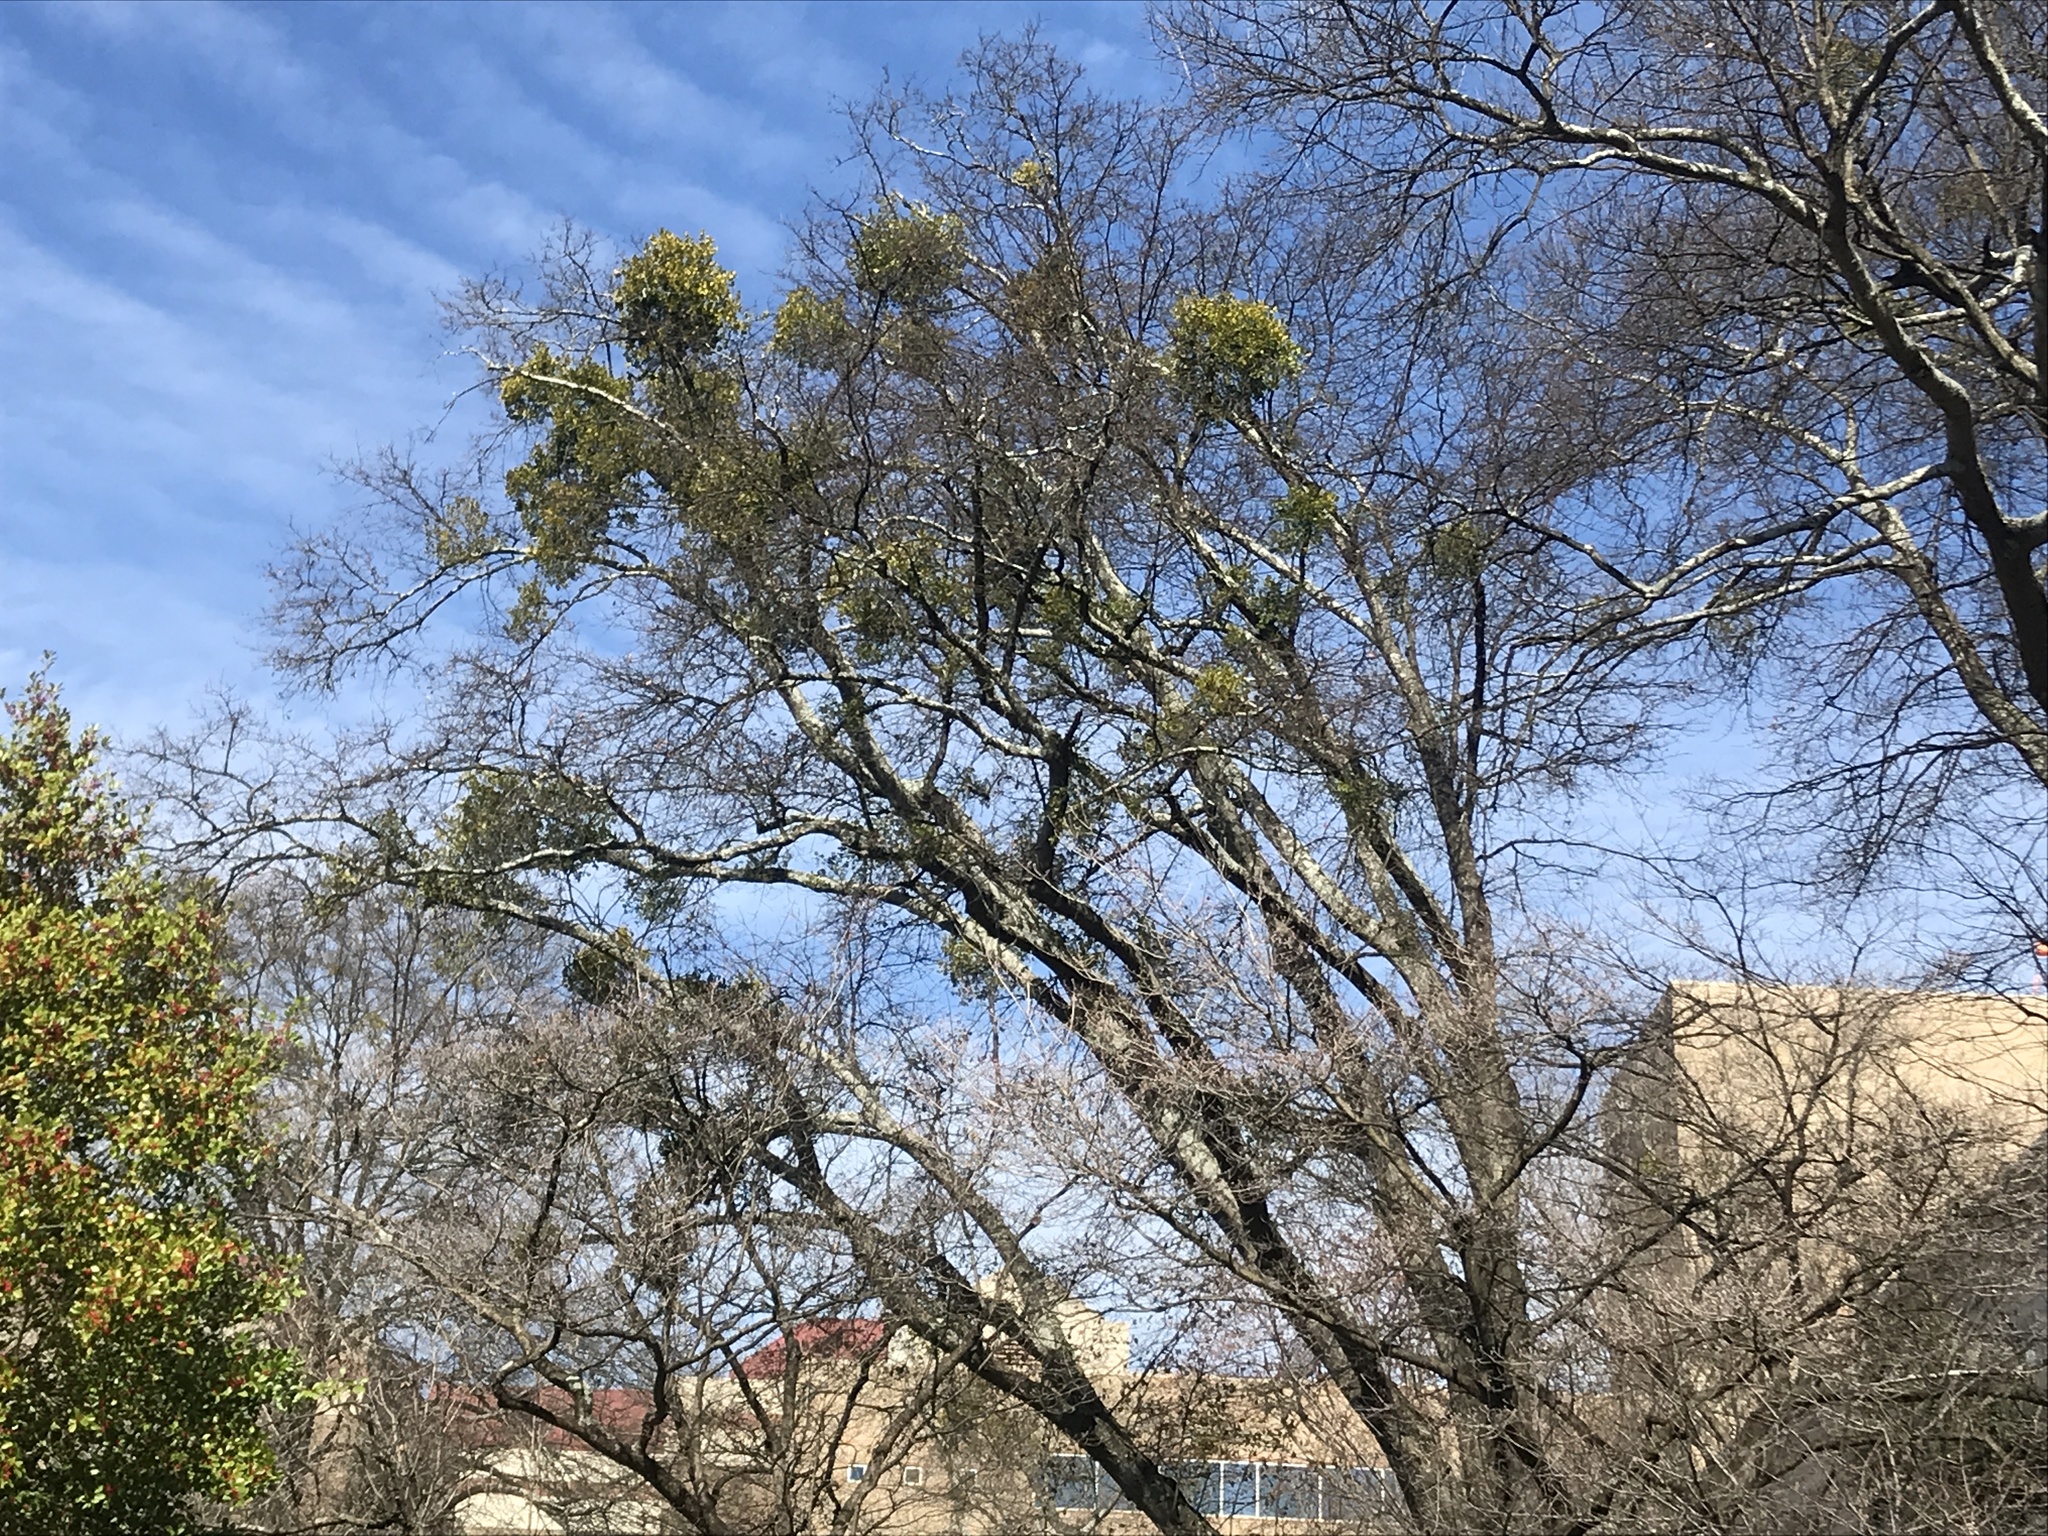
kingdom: Plantae
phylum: Tracheophyta
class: Magnoliopsida
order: Santalales
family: Viscaceae
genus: Phoradendron
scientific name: Phoradendron leucarpum
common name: Pacific mistletoe
